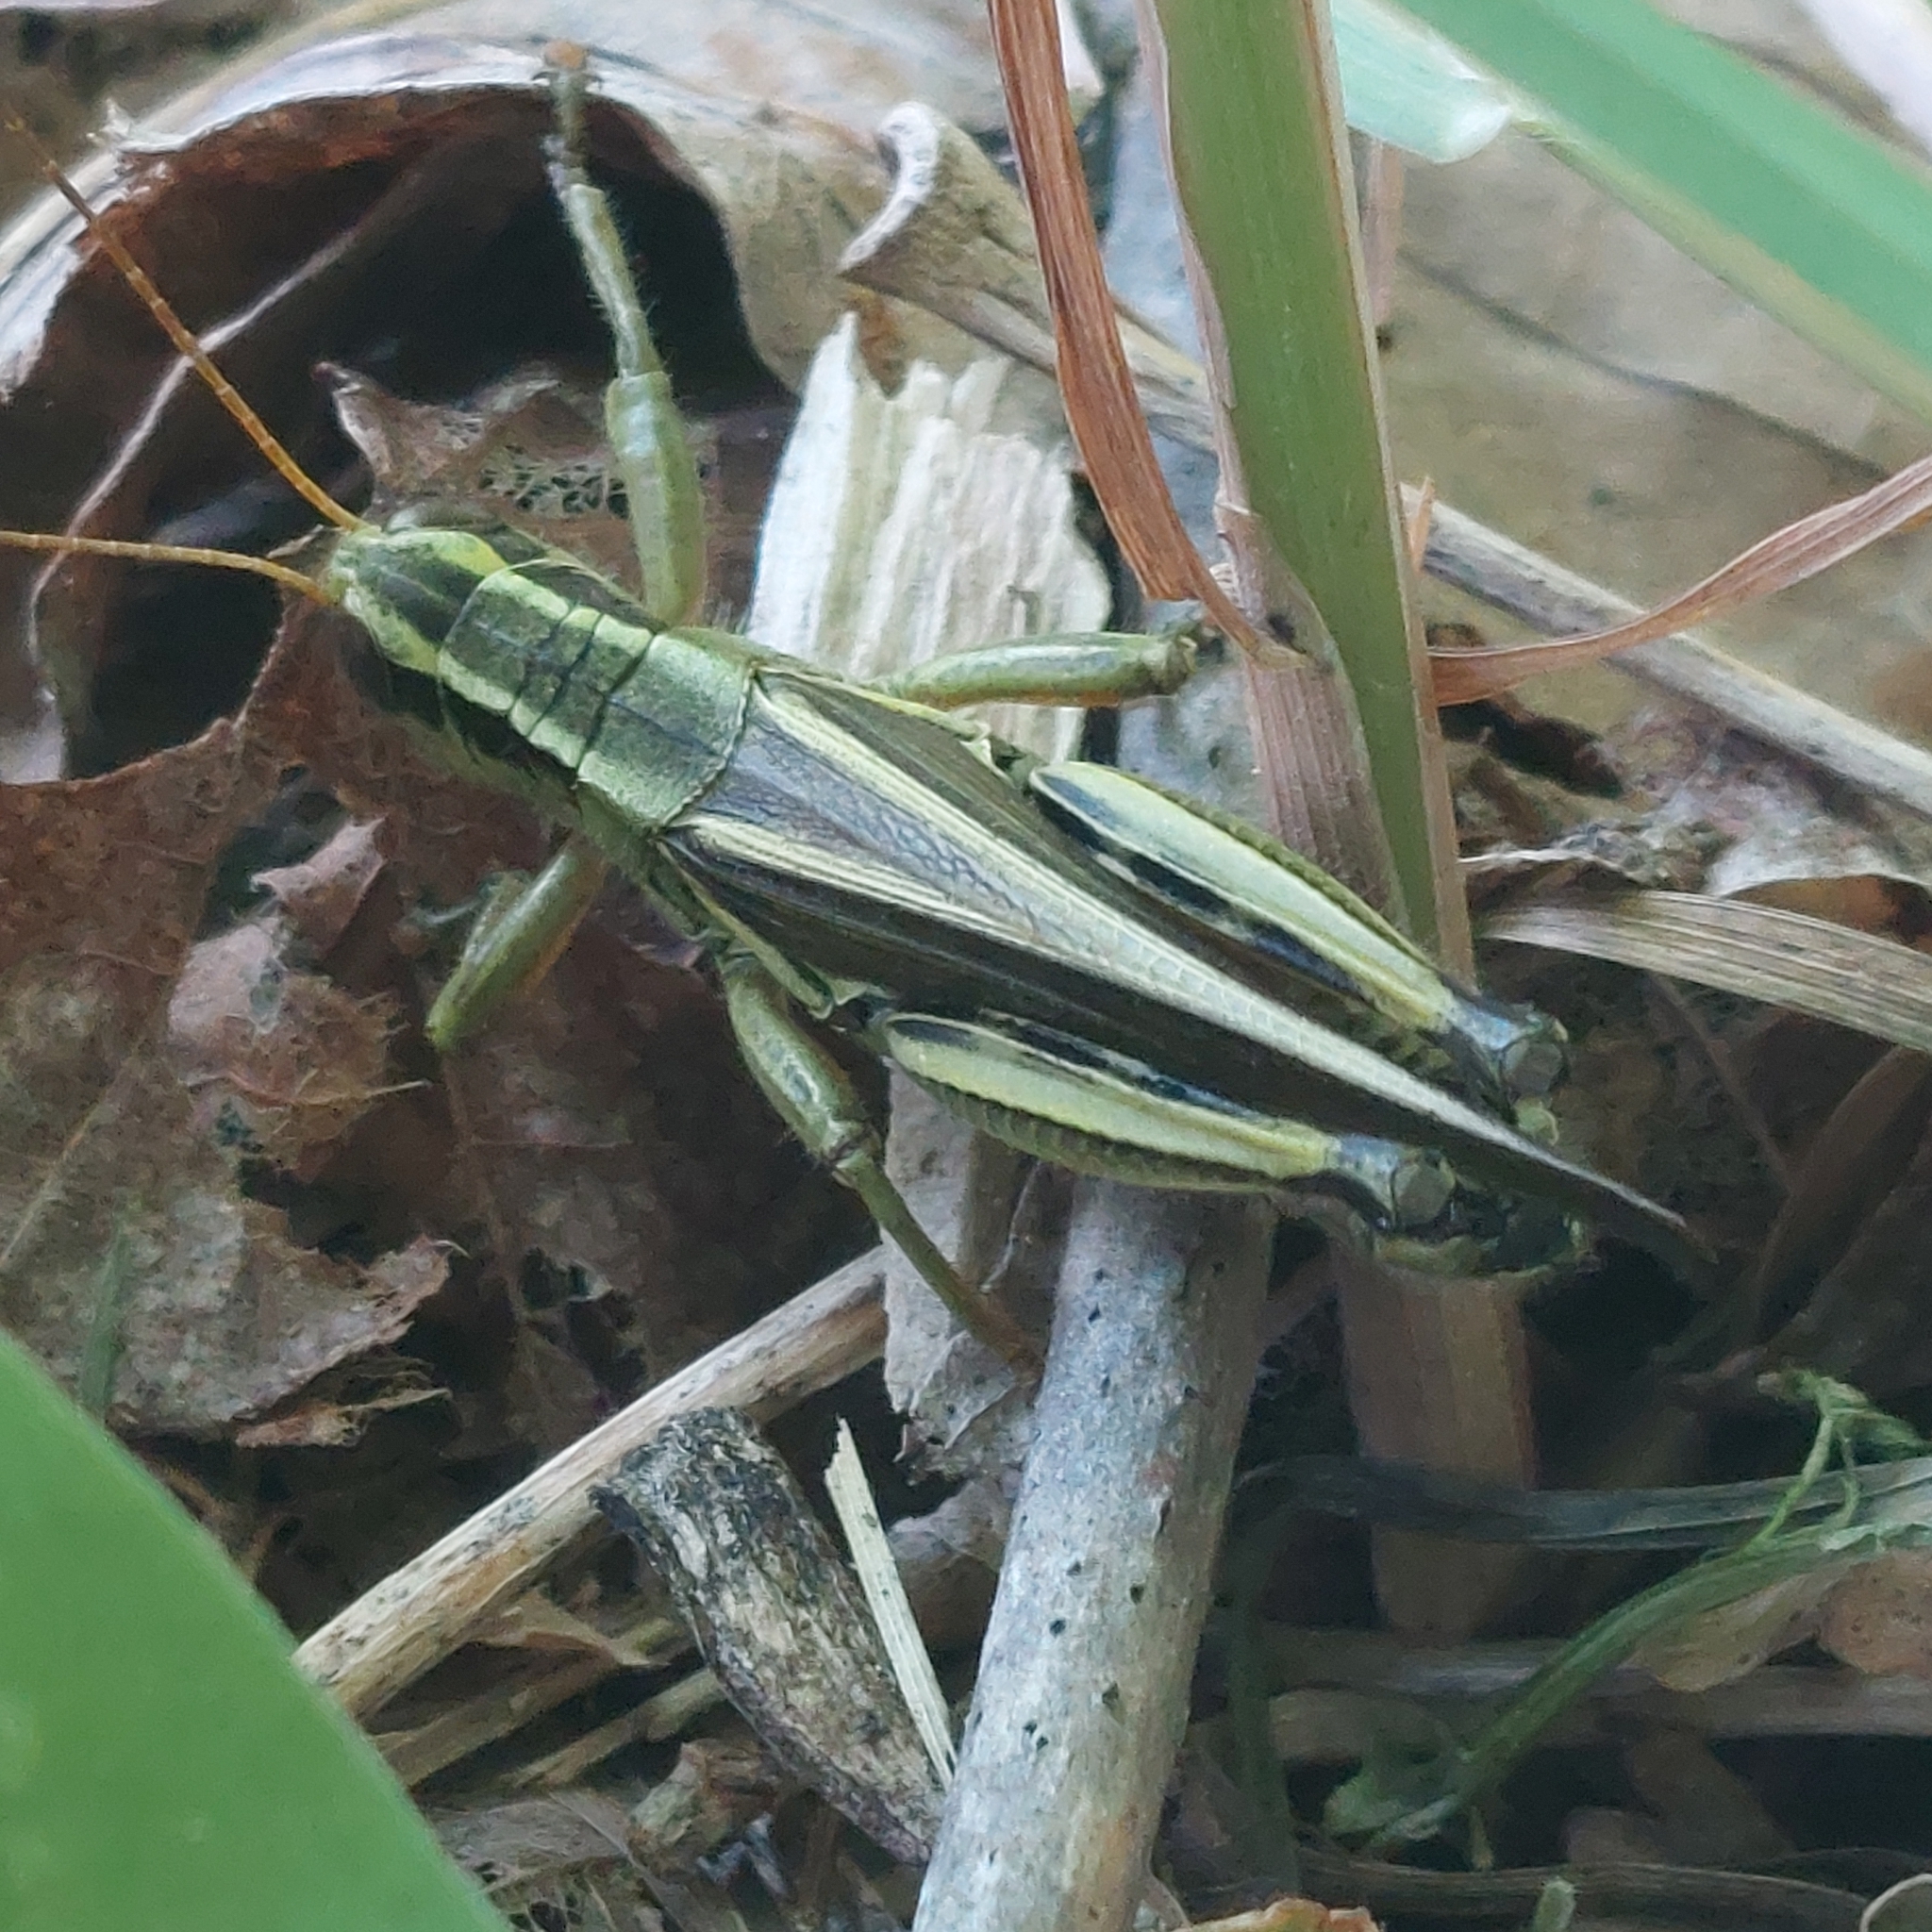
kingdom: Animalia
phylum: Arthropoda
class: Insecta
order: Orthoptera
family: Acrididae
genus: Melanoplus
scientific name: Melanoplus bivittatus
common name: Two-striped grasshopper
